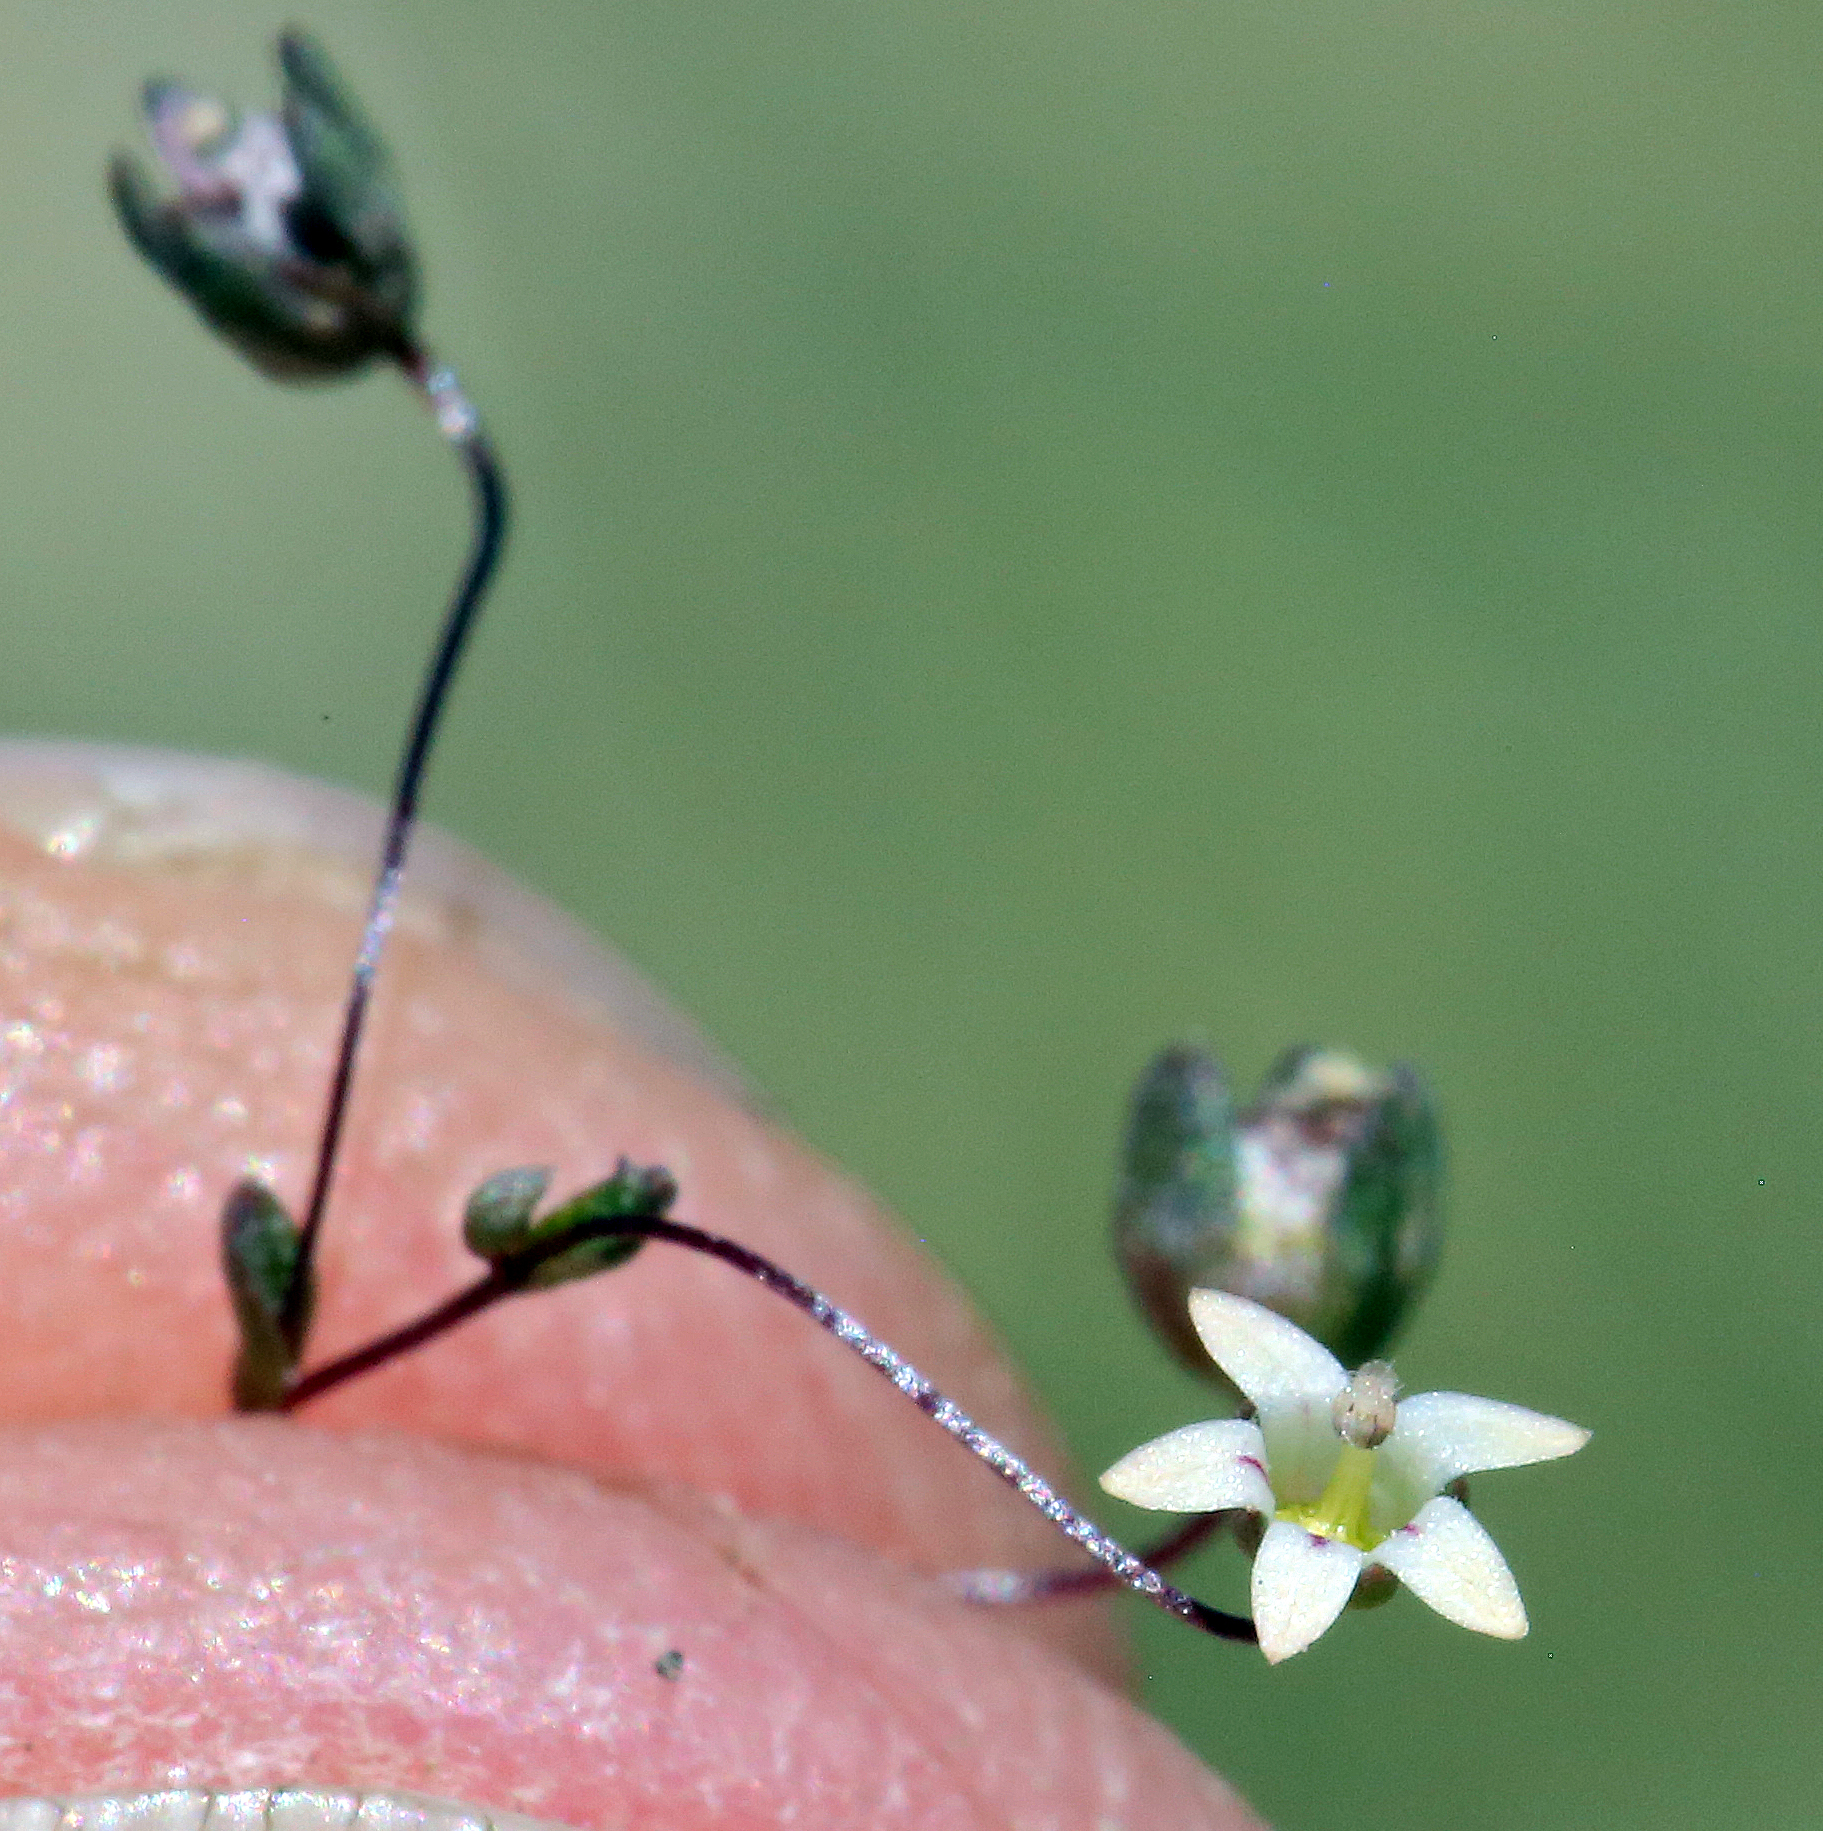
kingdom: Plantae
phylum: Tracheophyta
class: Magnoliopsida
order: Asterales
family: Campanulaceae
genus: Nemacladus
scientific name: Nemacladus inyoensis
